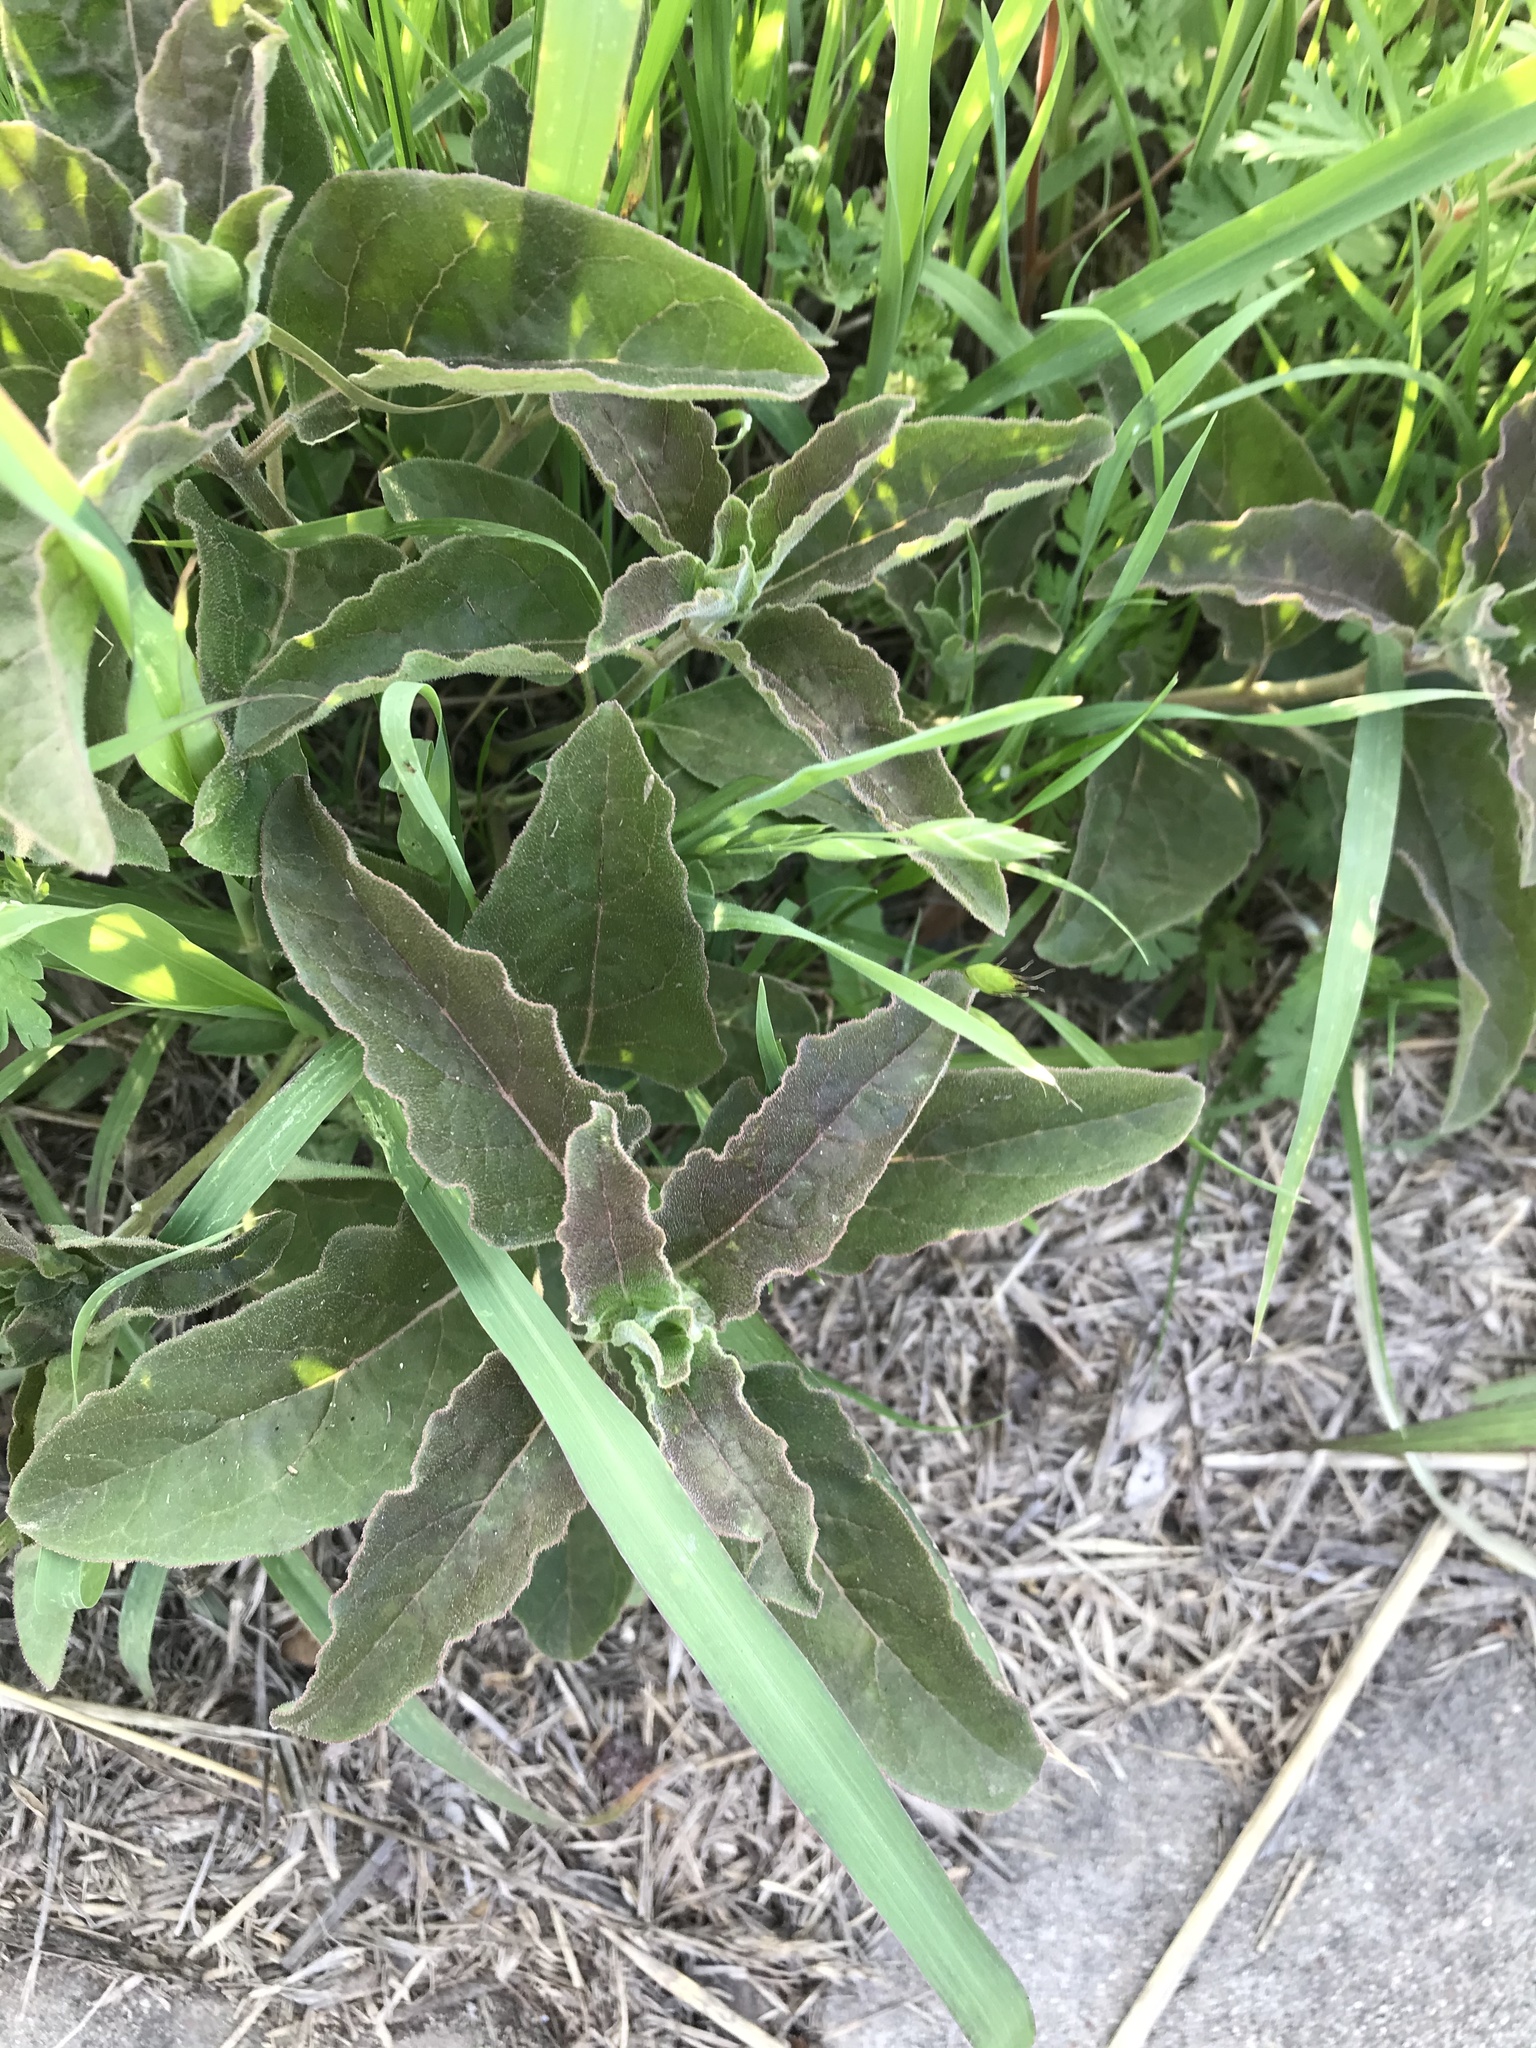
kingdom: Plantae
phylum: Tracheophyta
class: Magnoliopsida
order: Gentianales
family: Apocynaceae
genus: Asclepias
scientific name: Asclepias oenotheroides
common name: Zizotes milkweed
